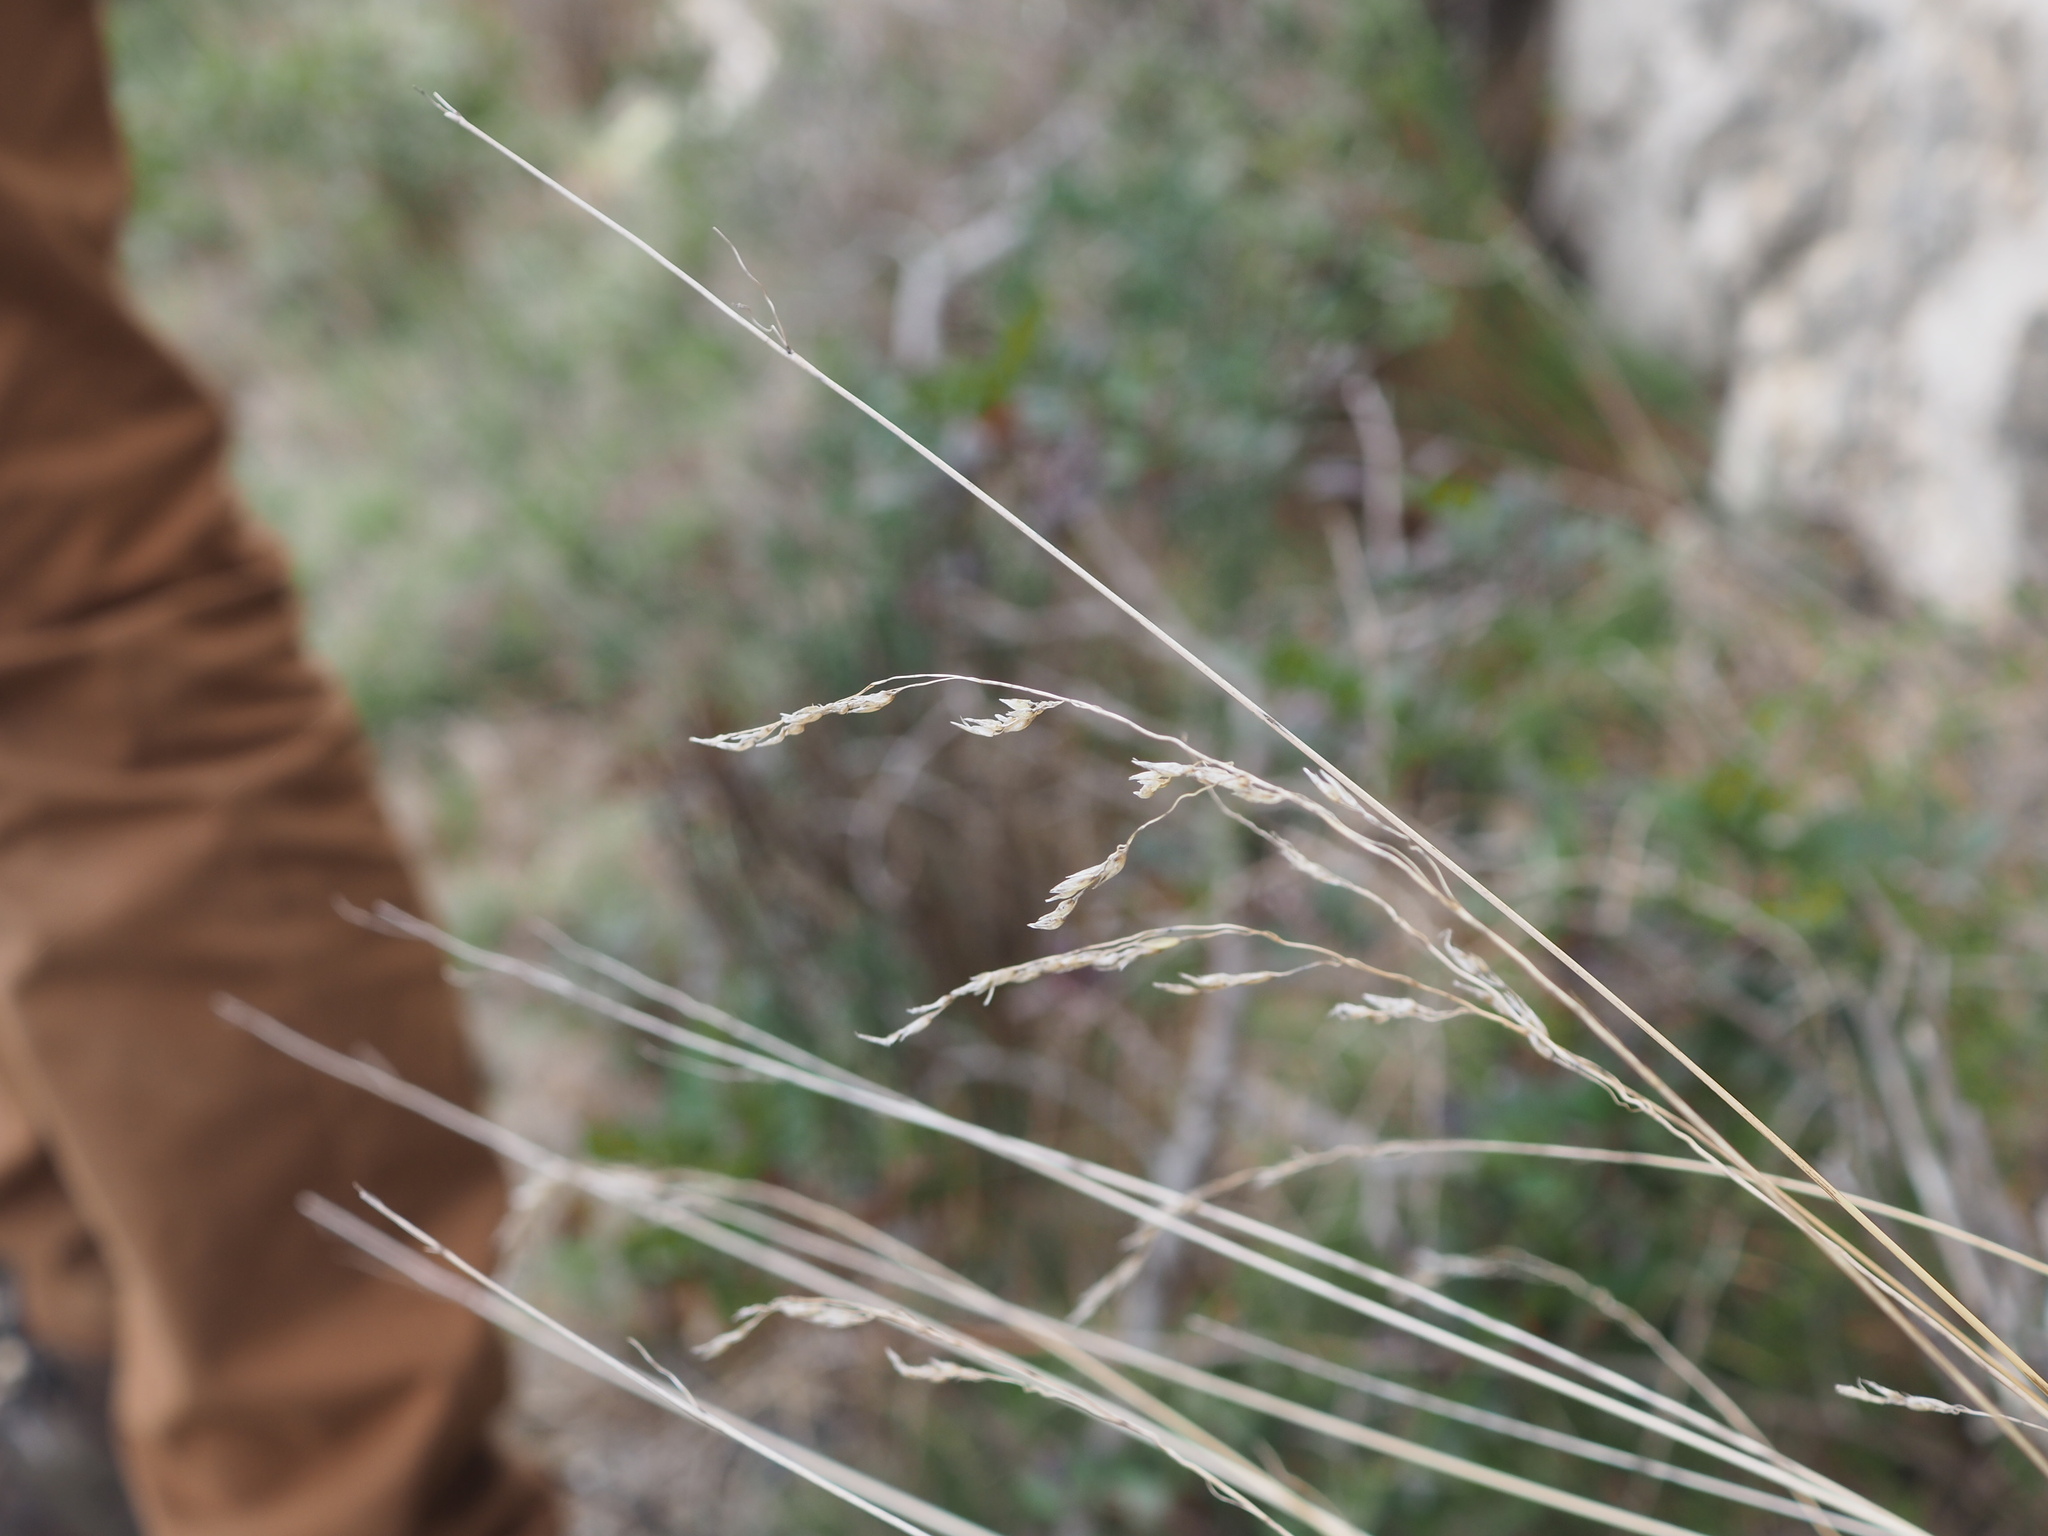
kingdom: Plantae
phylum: Tracheophyta
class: Liliopsida
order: Poales
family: Poaceae
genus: Oryzopsis
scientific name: Oryzopsis coerulescens
